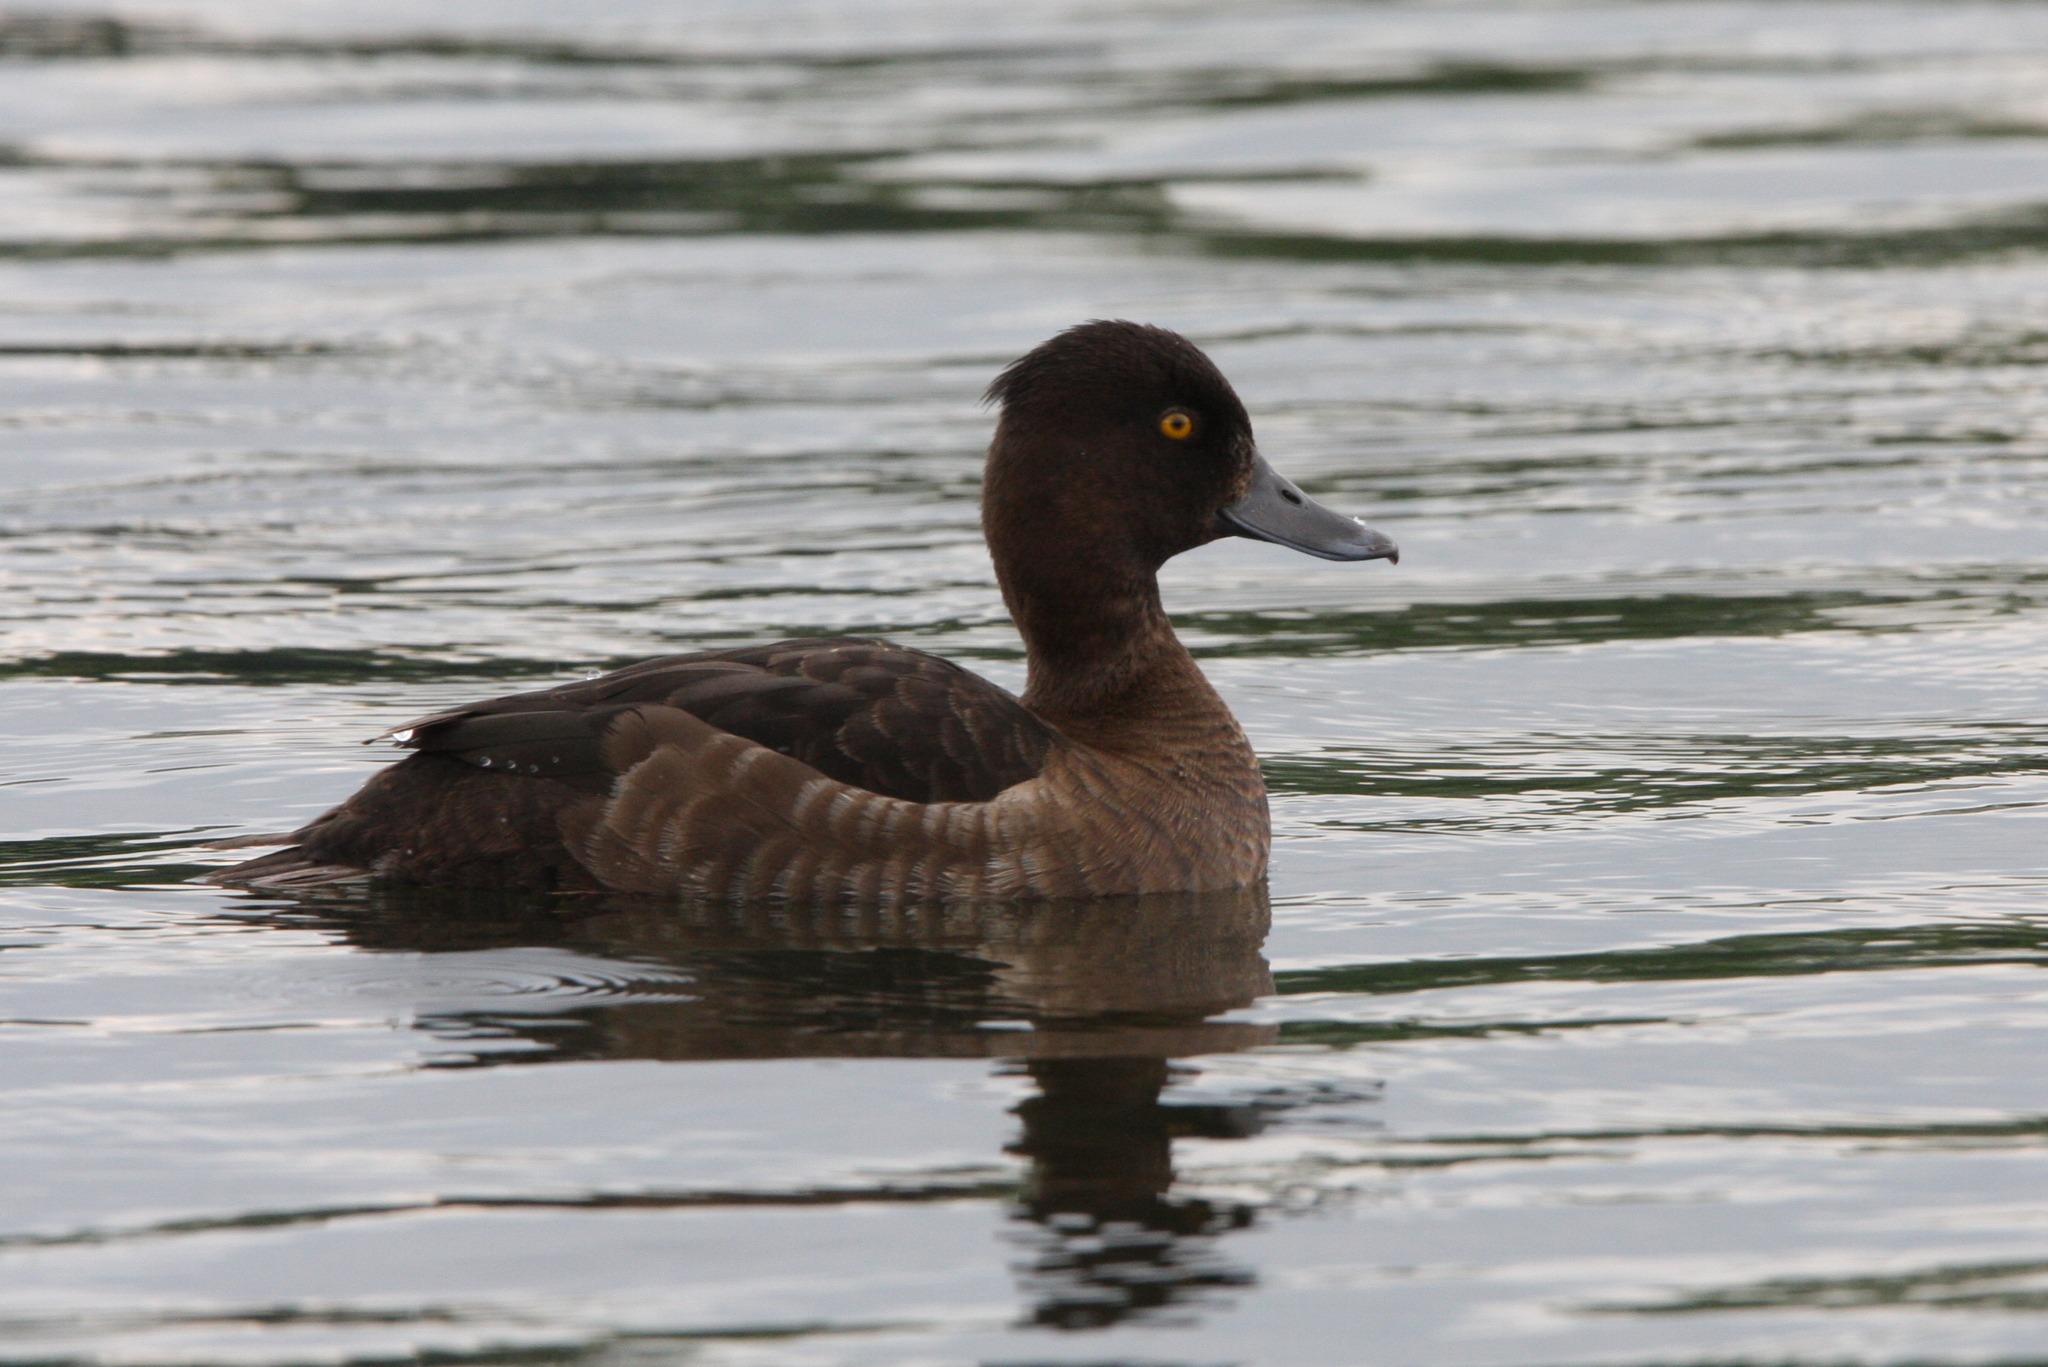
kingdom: Animalia
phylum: Chordata
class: Aves
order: Anseriformes
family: Anatidae
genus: Aythya
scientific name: Aythya fuligula
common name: Tufted duck
